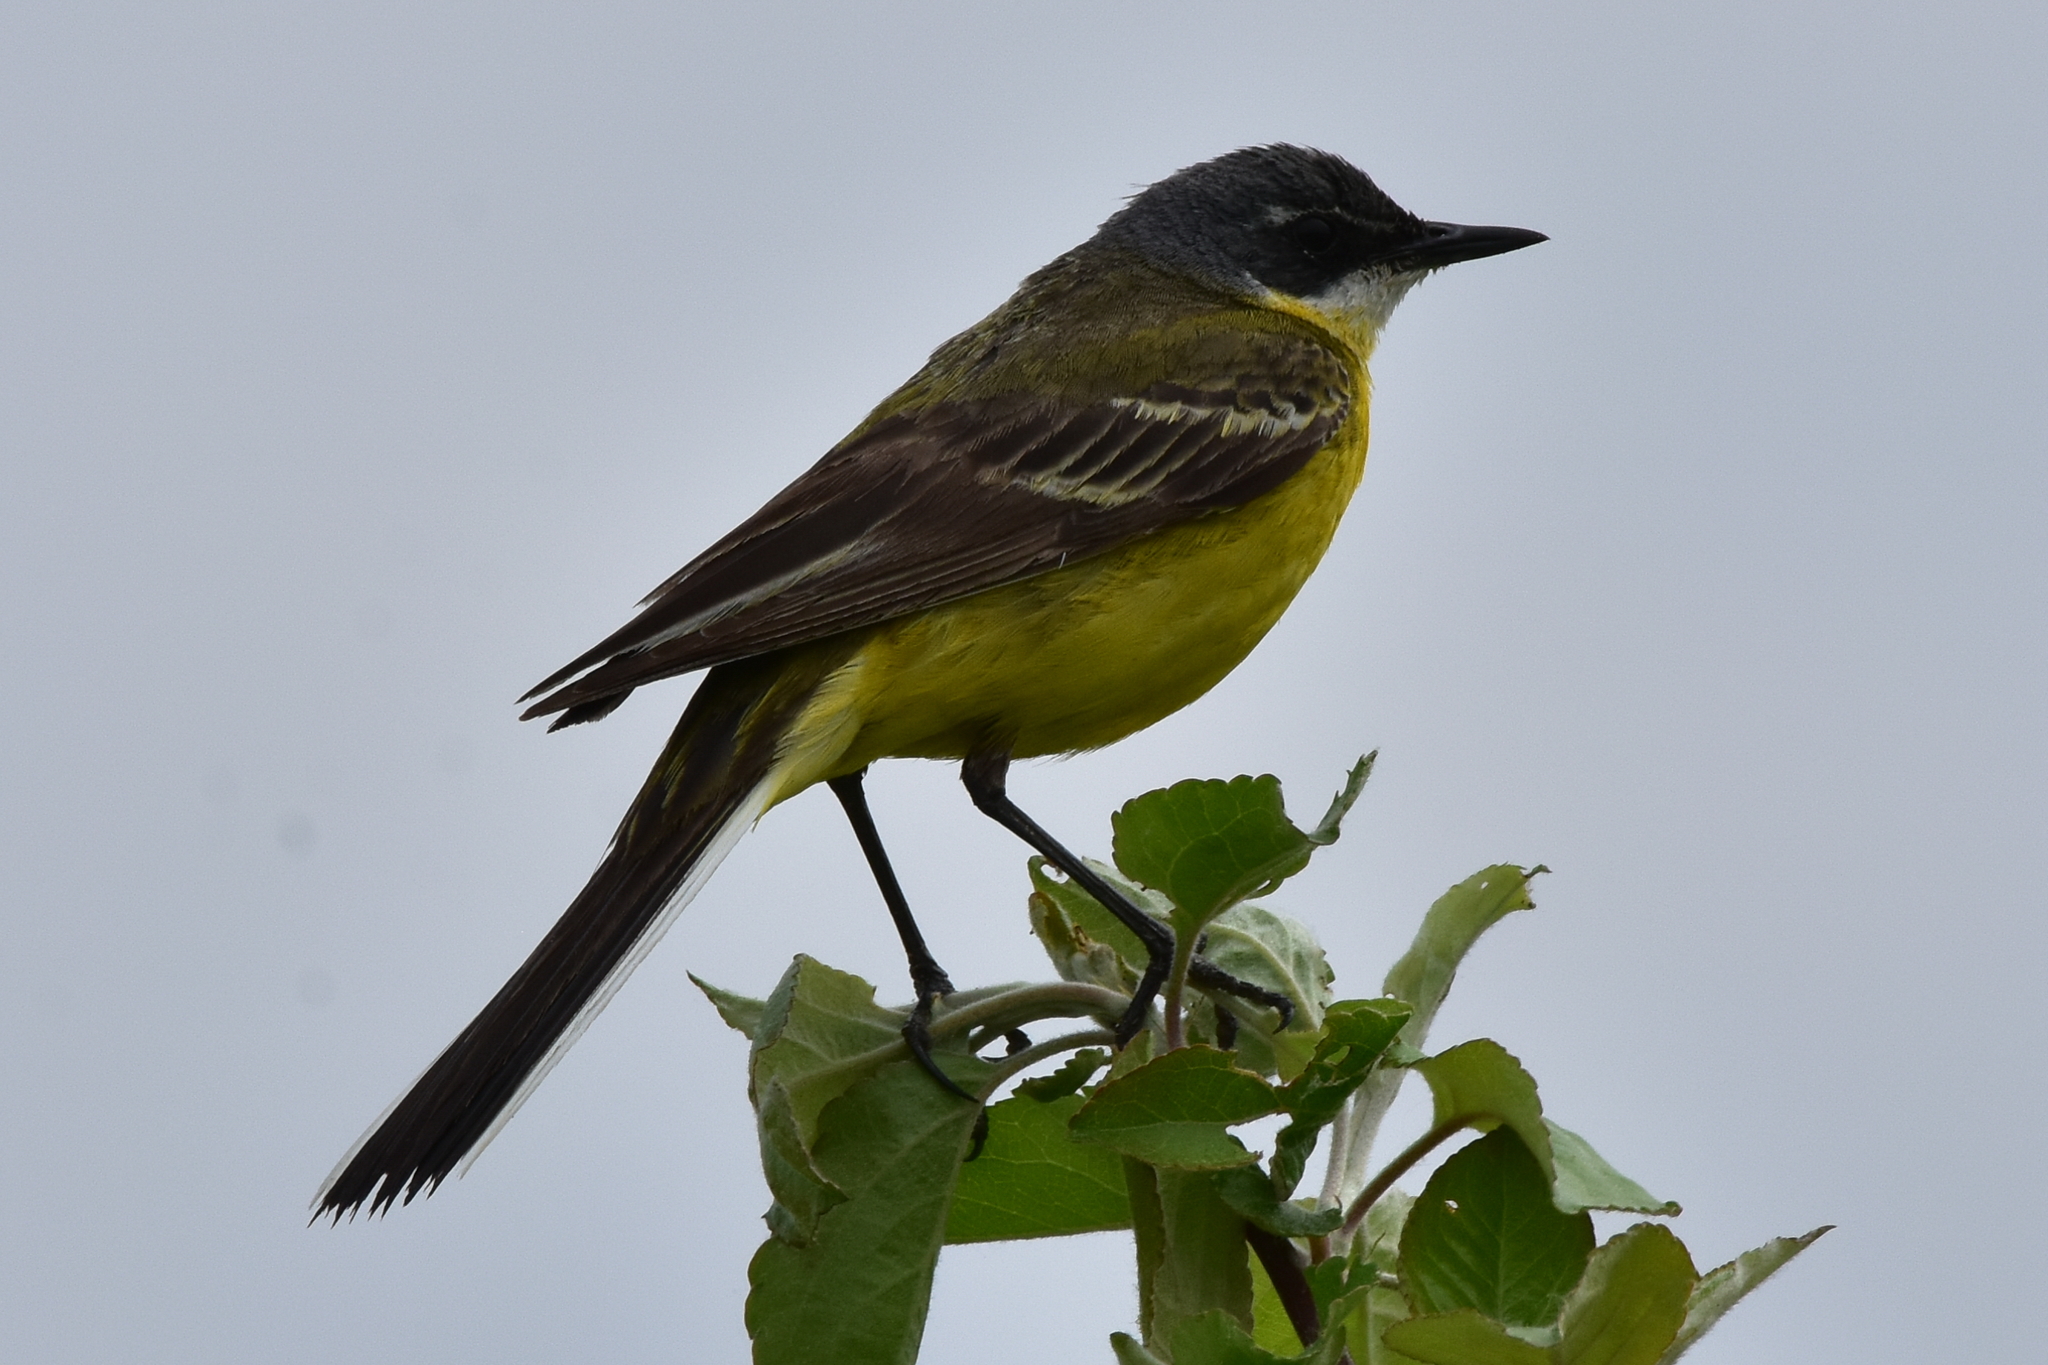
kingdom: Animalia
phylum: Chordata
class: Aves
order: Passeriformes
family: Motacillidae
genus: Motacilla
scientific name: Motacilla flava
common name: Western yellow wagtail
